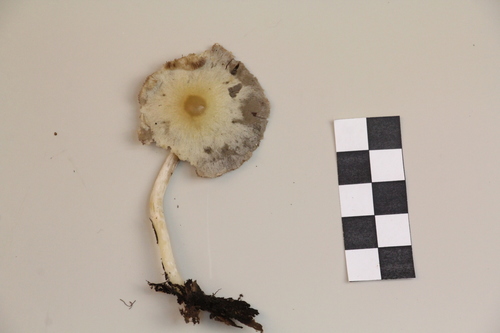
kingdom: Fungi
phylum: Basidiomycota
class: Agaricomycetes
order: Agaricales
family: Psathyrellaceae
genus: Psathyrella
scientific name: Psathyrella fatua
